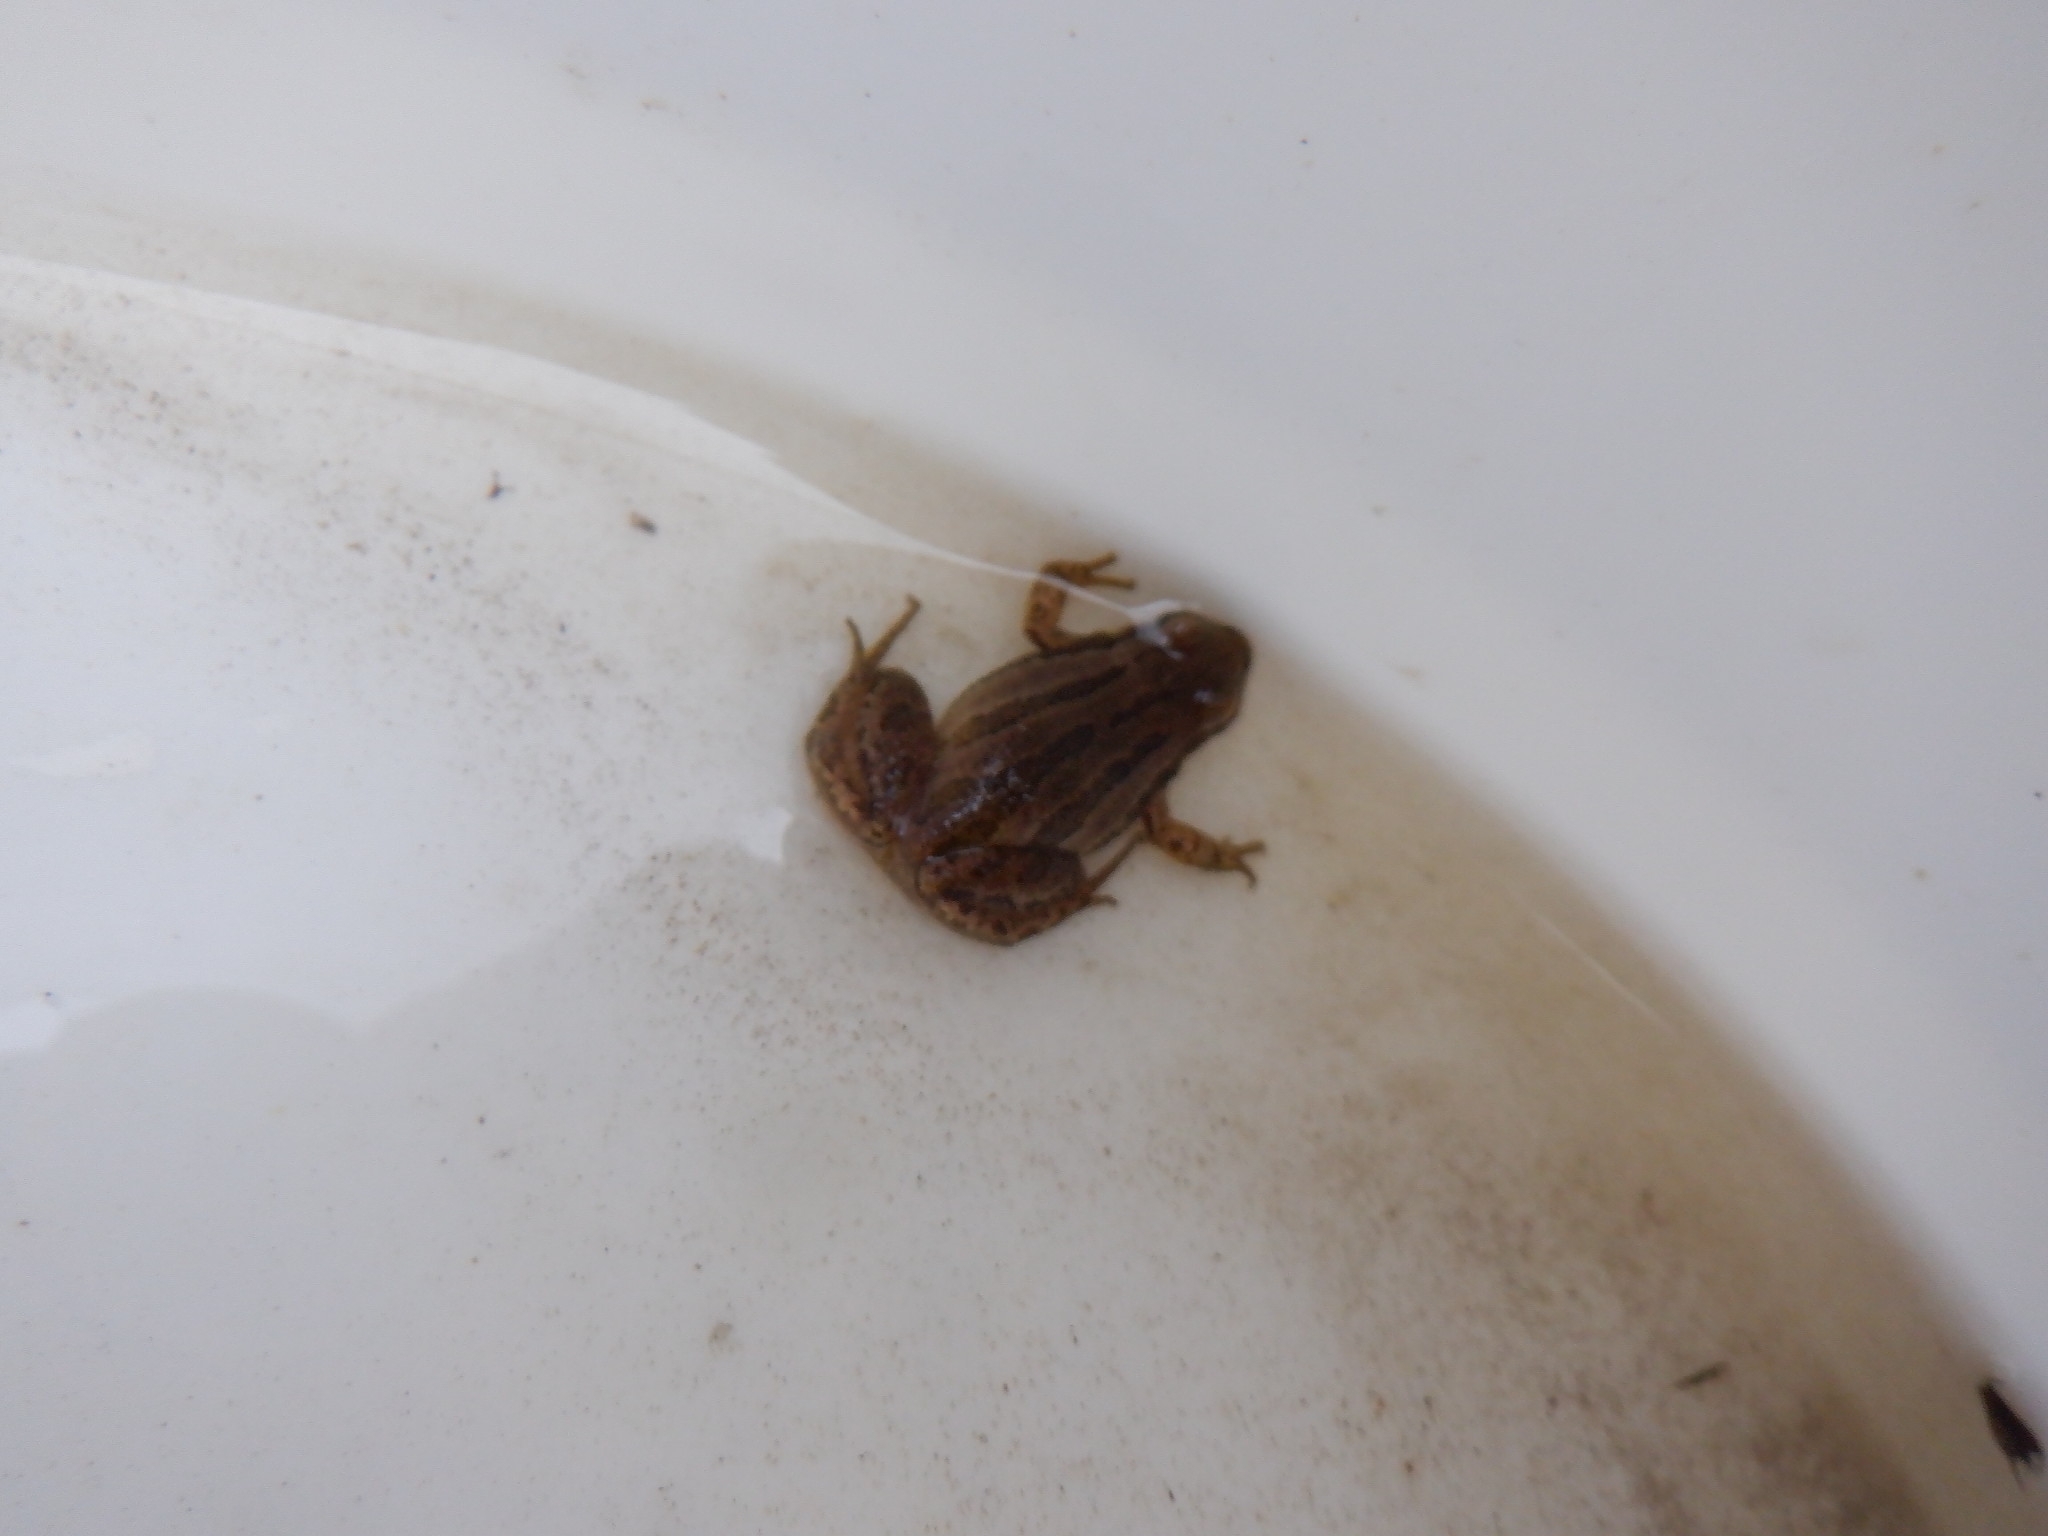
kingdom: Animalia
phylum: Chordata
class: Amphibia
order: Anura
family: Hylidae
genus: Pseudacris
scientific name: Pseudacris maculata
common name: Boreal chorus frog
